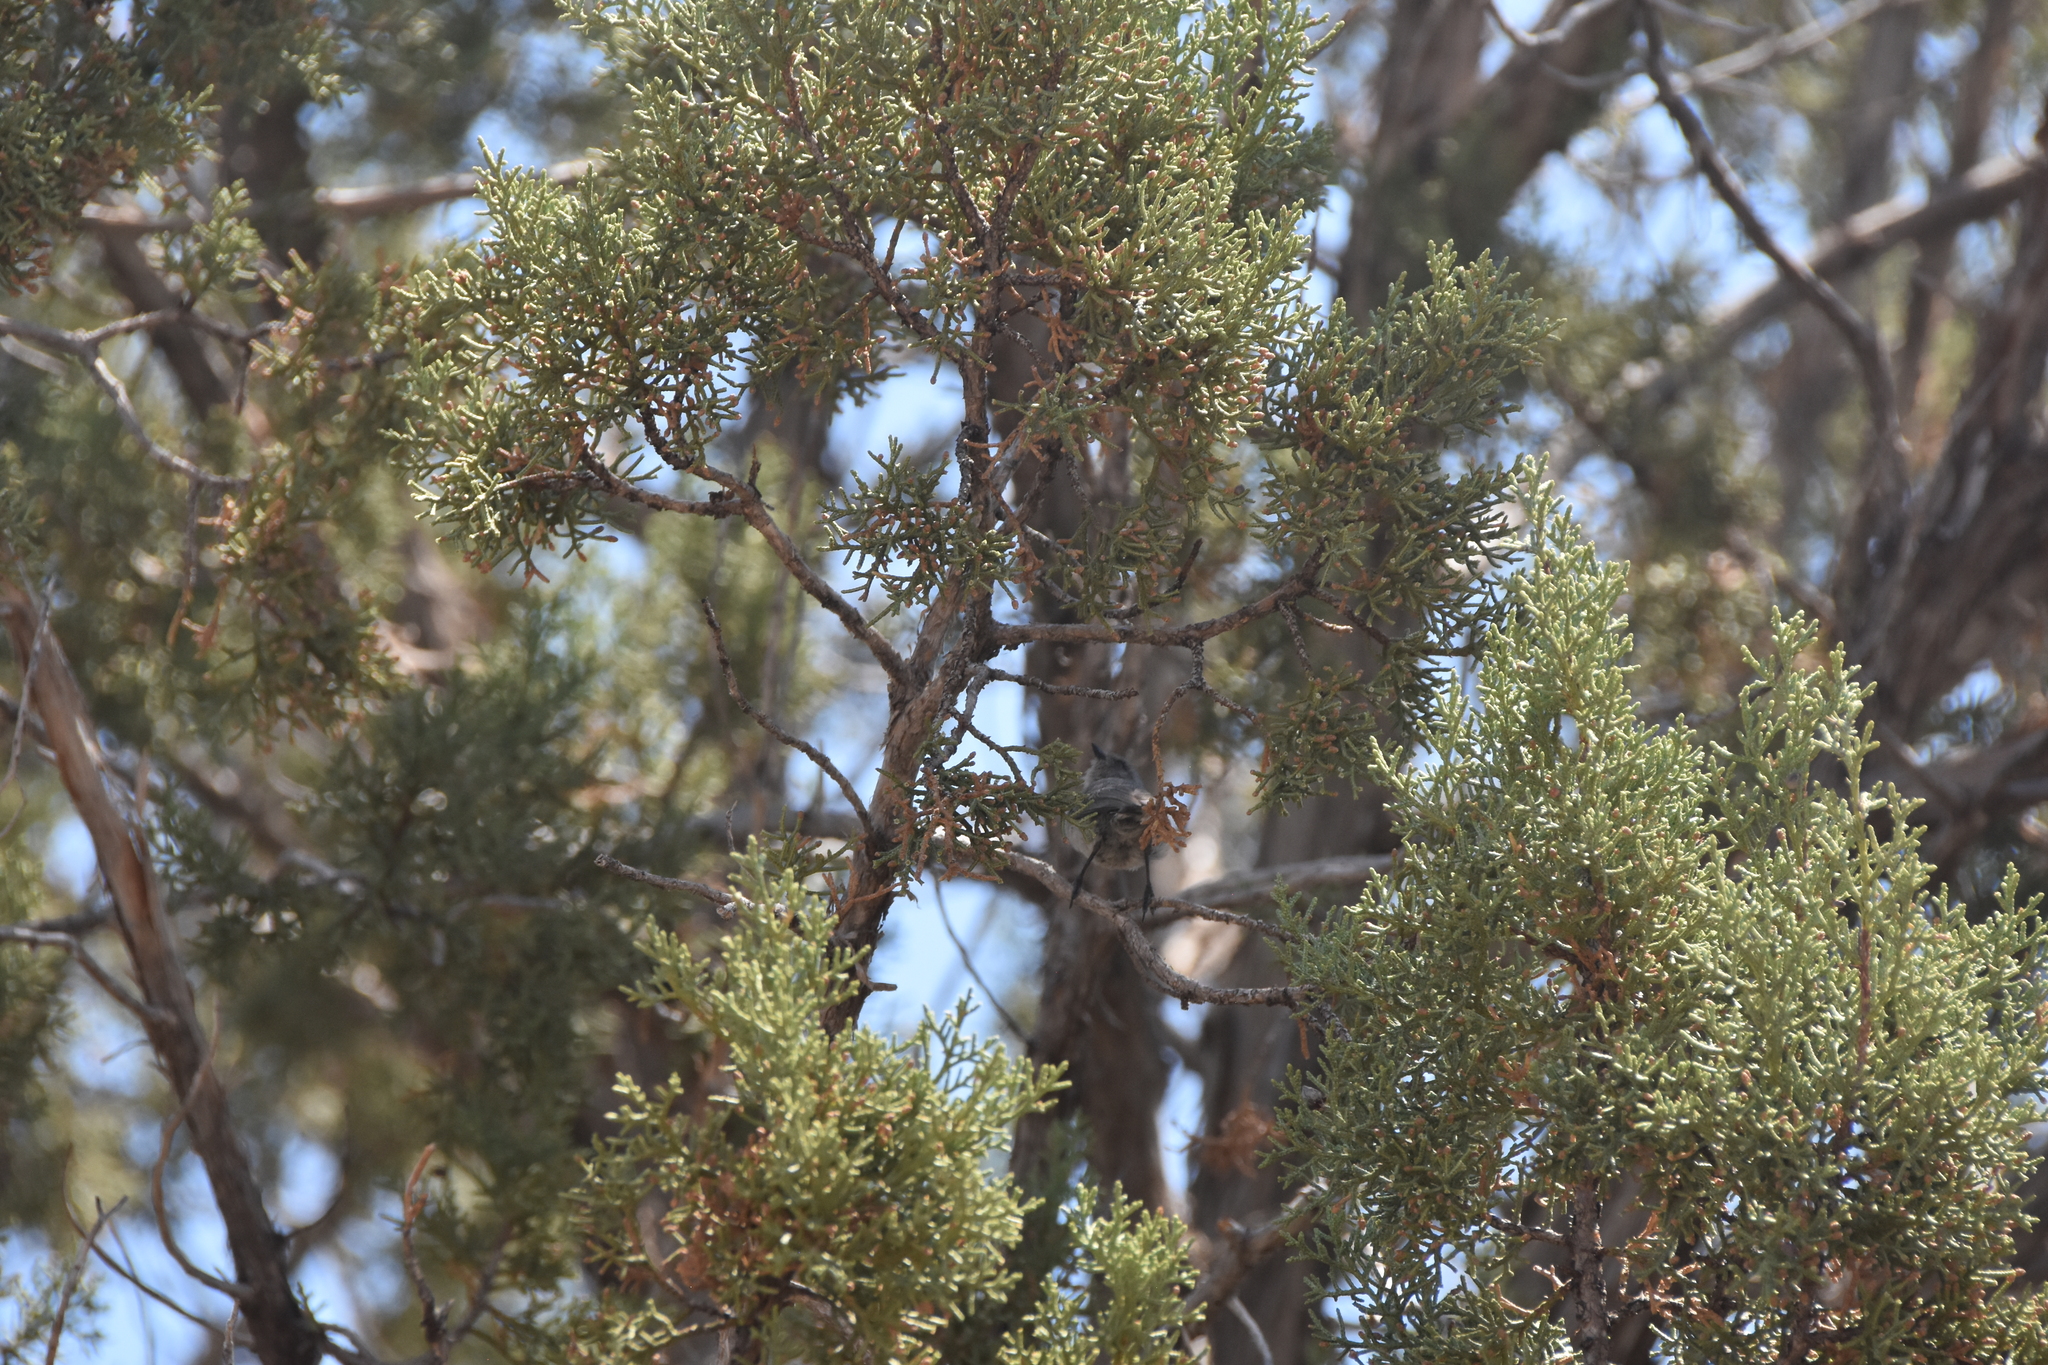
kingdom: Animalia
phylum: Chordata
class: Aves
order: Passeriformes
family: Aegithalidae
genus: Psaltriparus
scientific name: Psaltriparus minimus
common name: American bushtit
